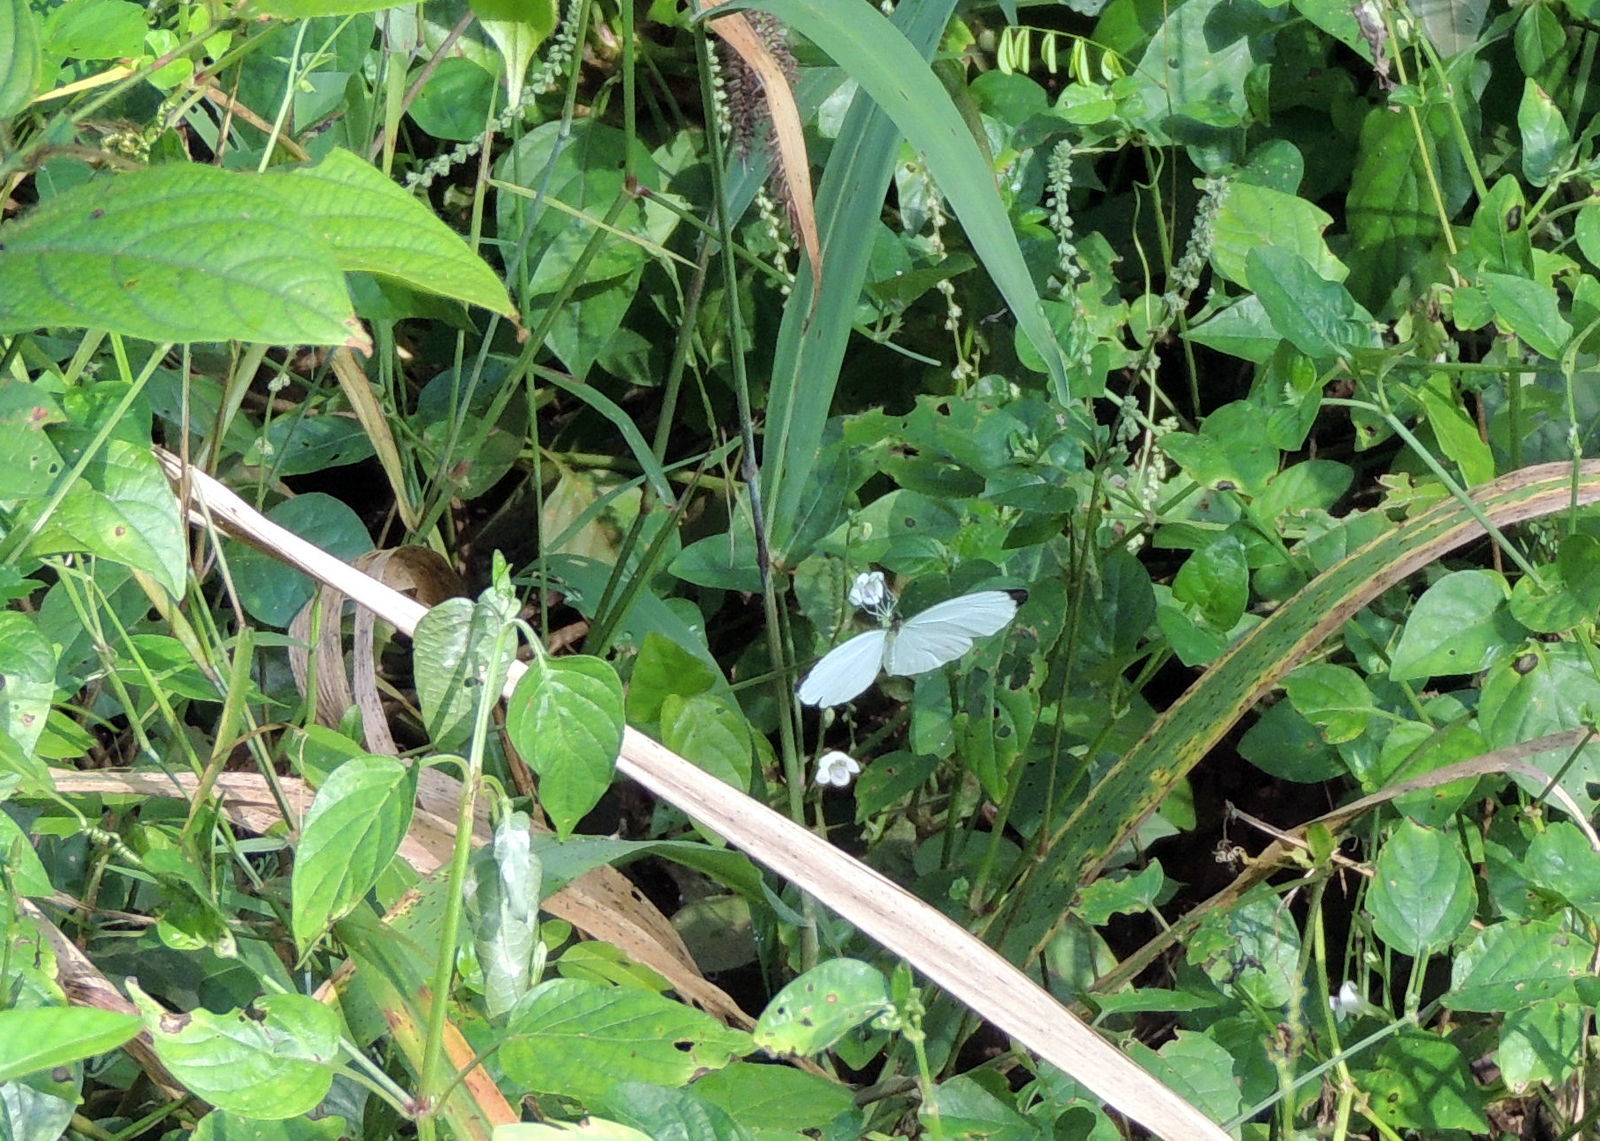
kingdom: Animalia
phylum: Arthropoda
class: Insecta
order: Lepidoptera
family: Pieridae
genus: Nepheronia
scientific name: Nepheronia pharis
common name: Round-winged vagrant
